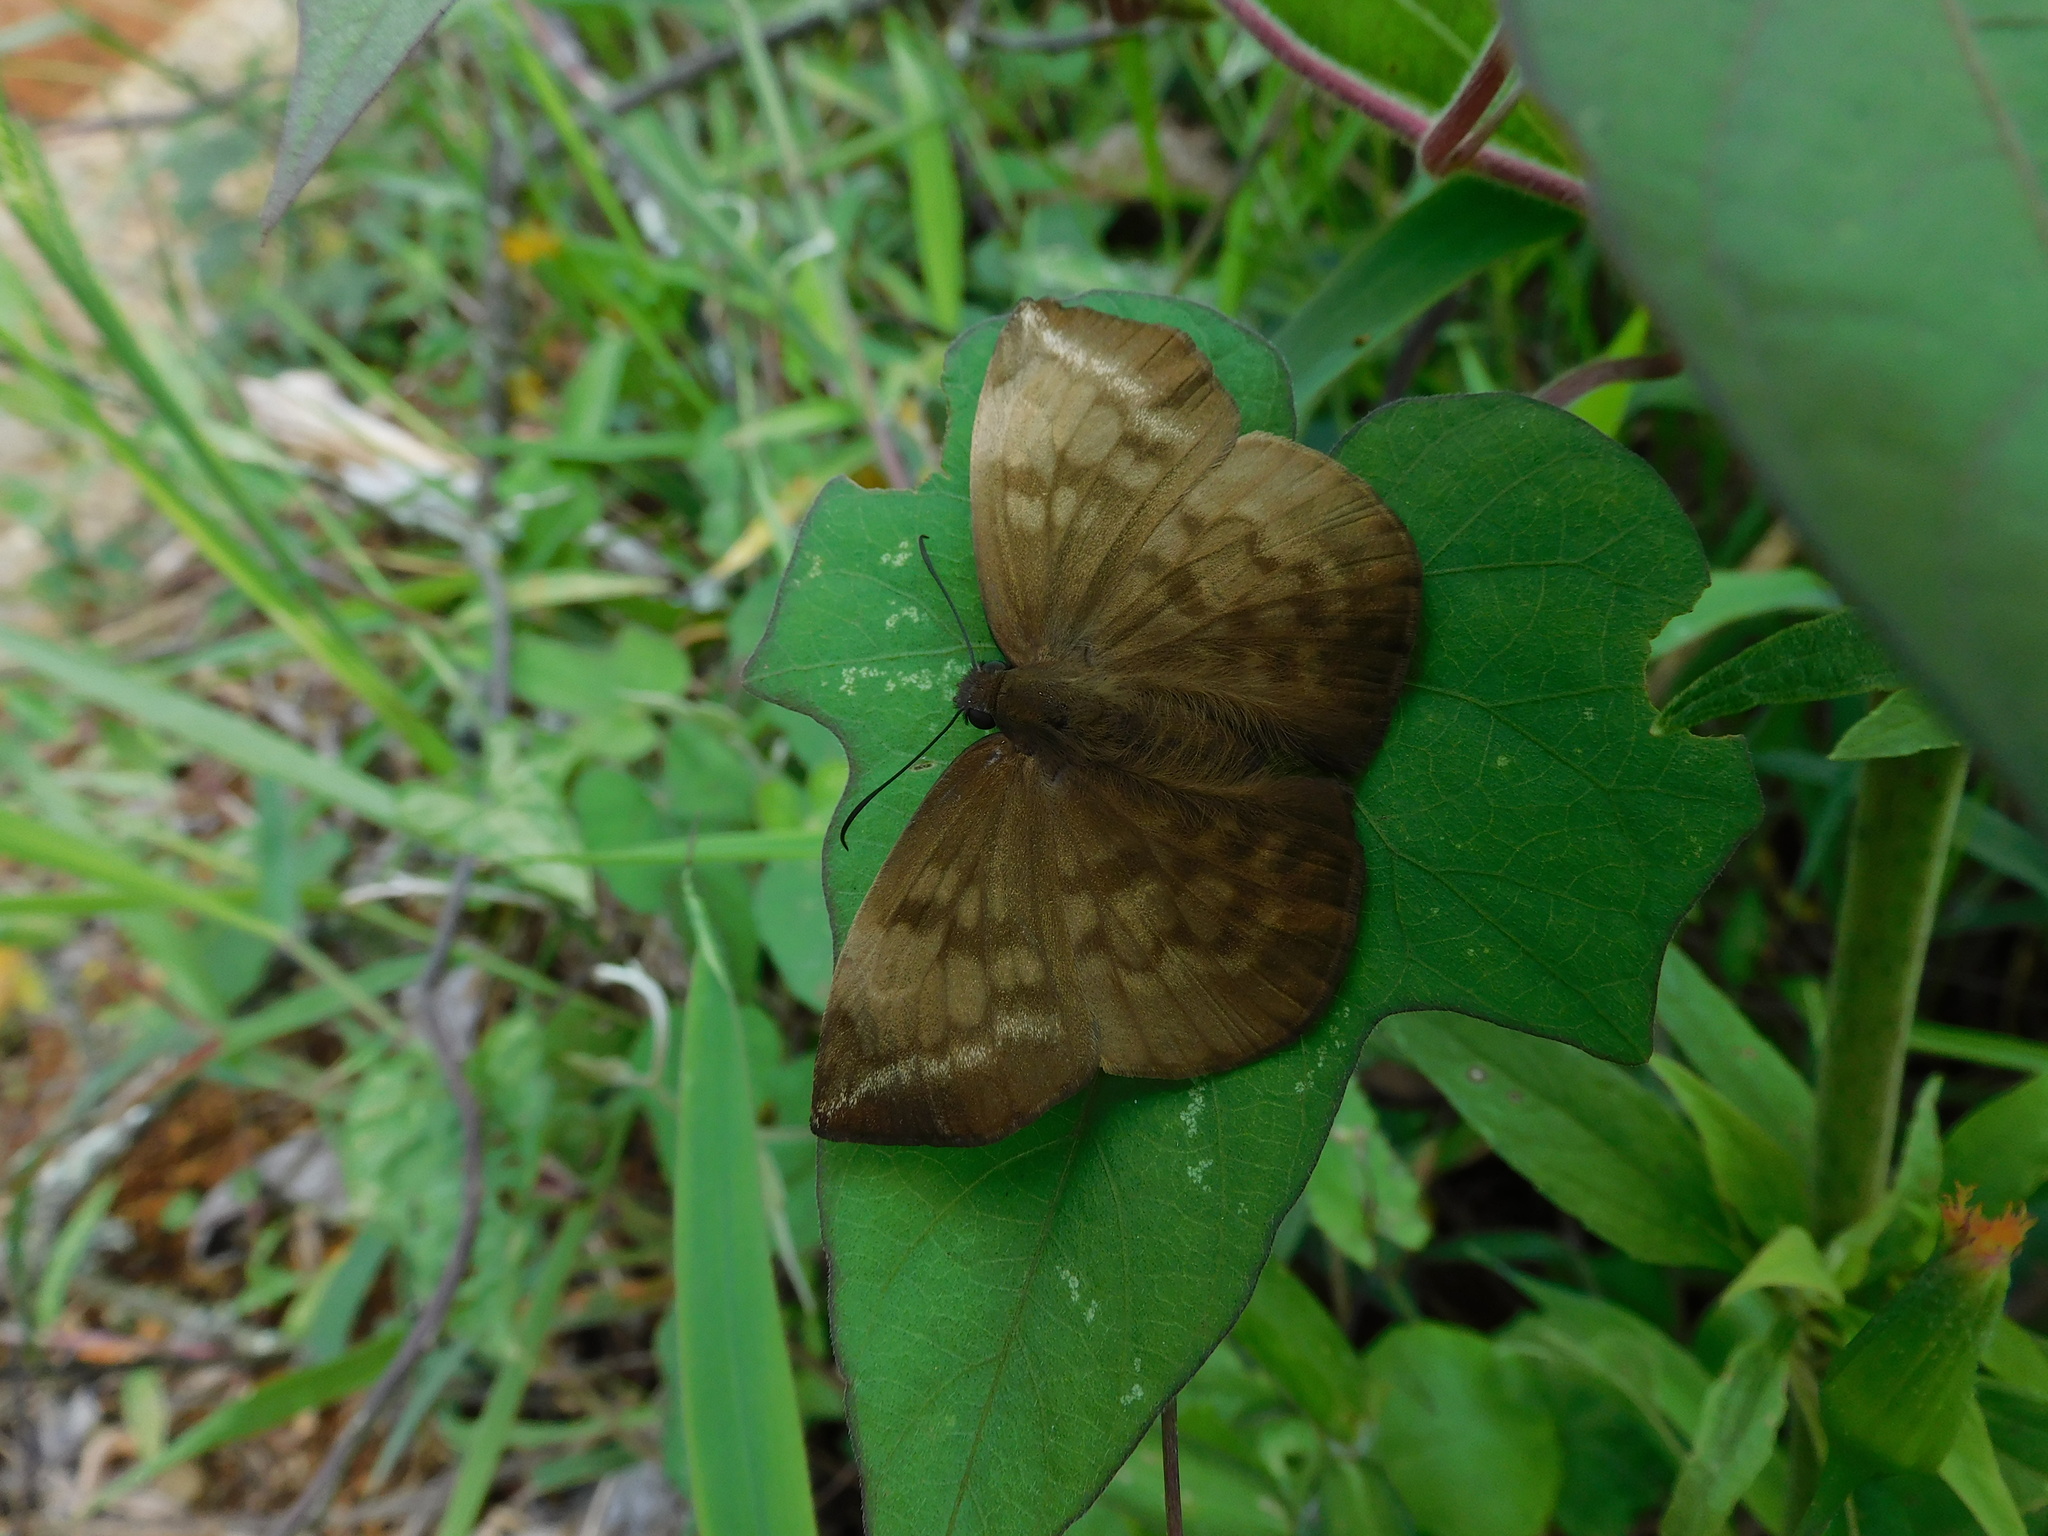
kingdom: Animalia
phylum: Arthropoda
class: Insecta
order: Lepidoptera
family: Hesperiidae
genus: Achlyodes
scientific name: Achlyodes pallida
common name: Pale sicklewing
